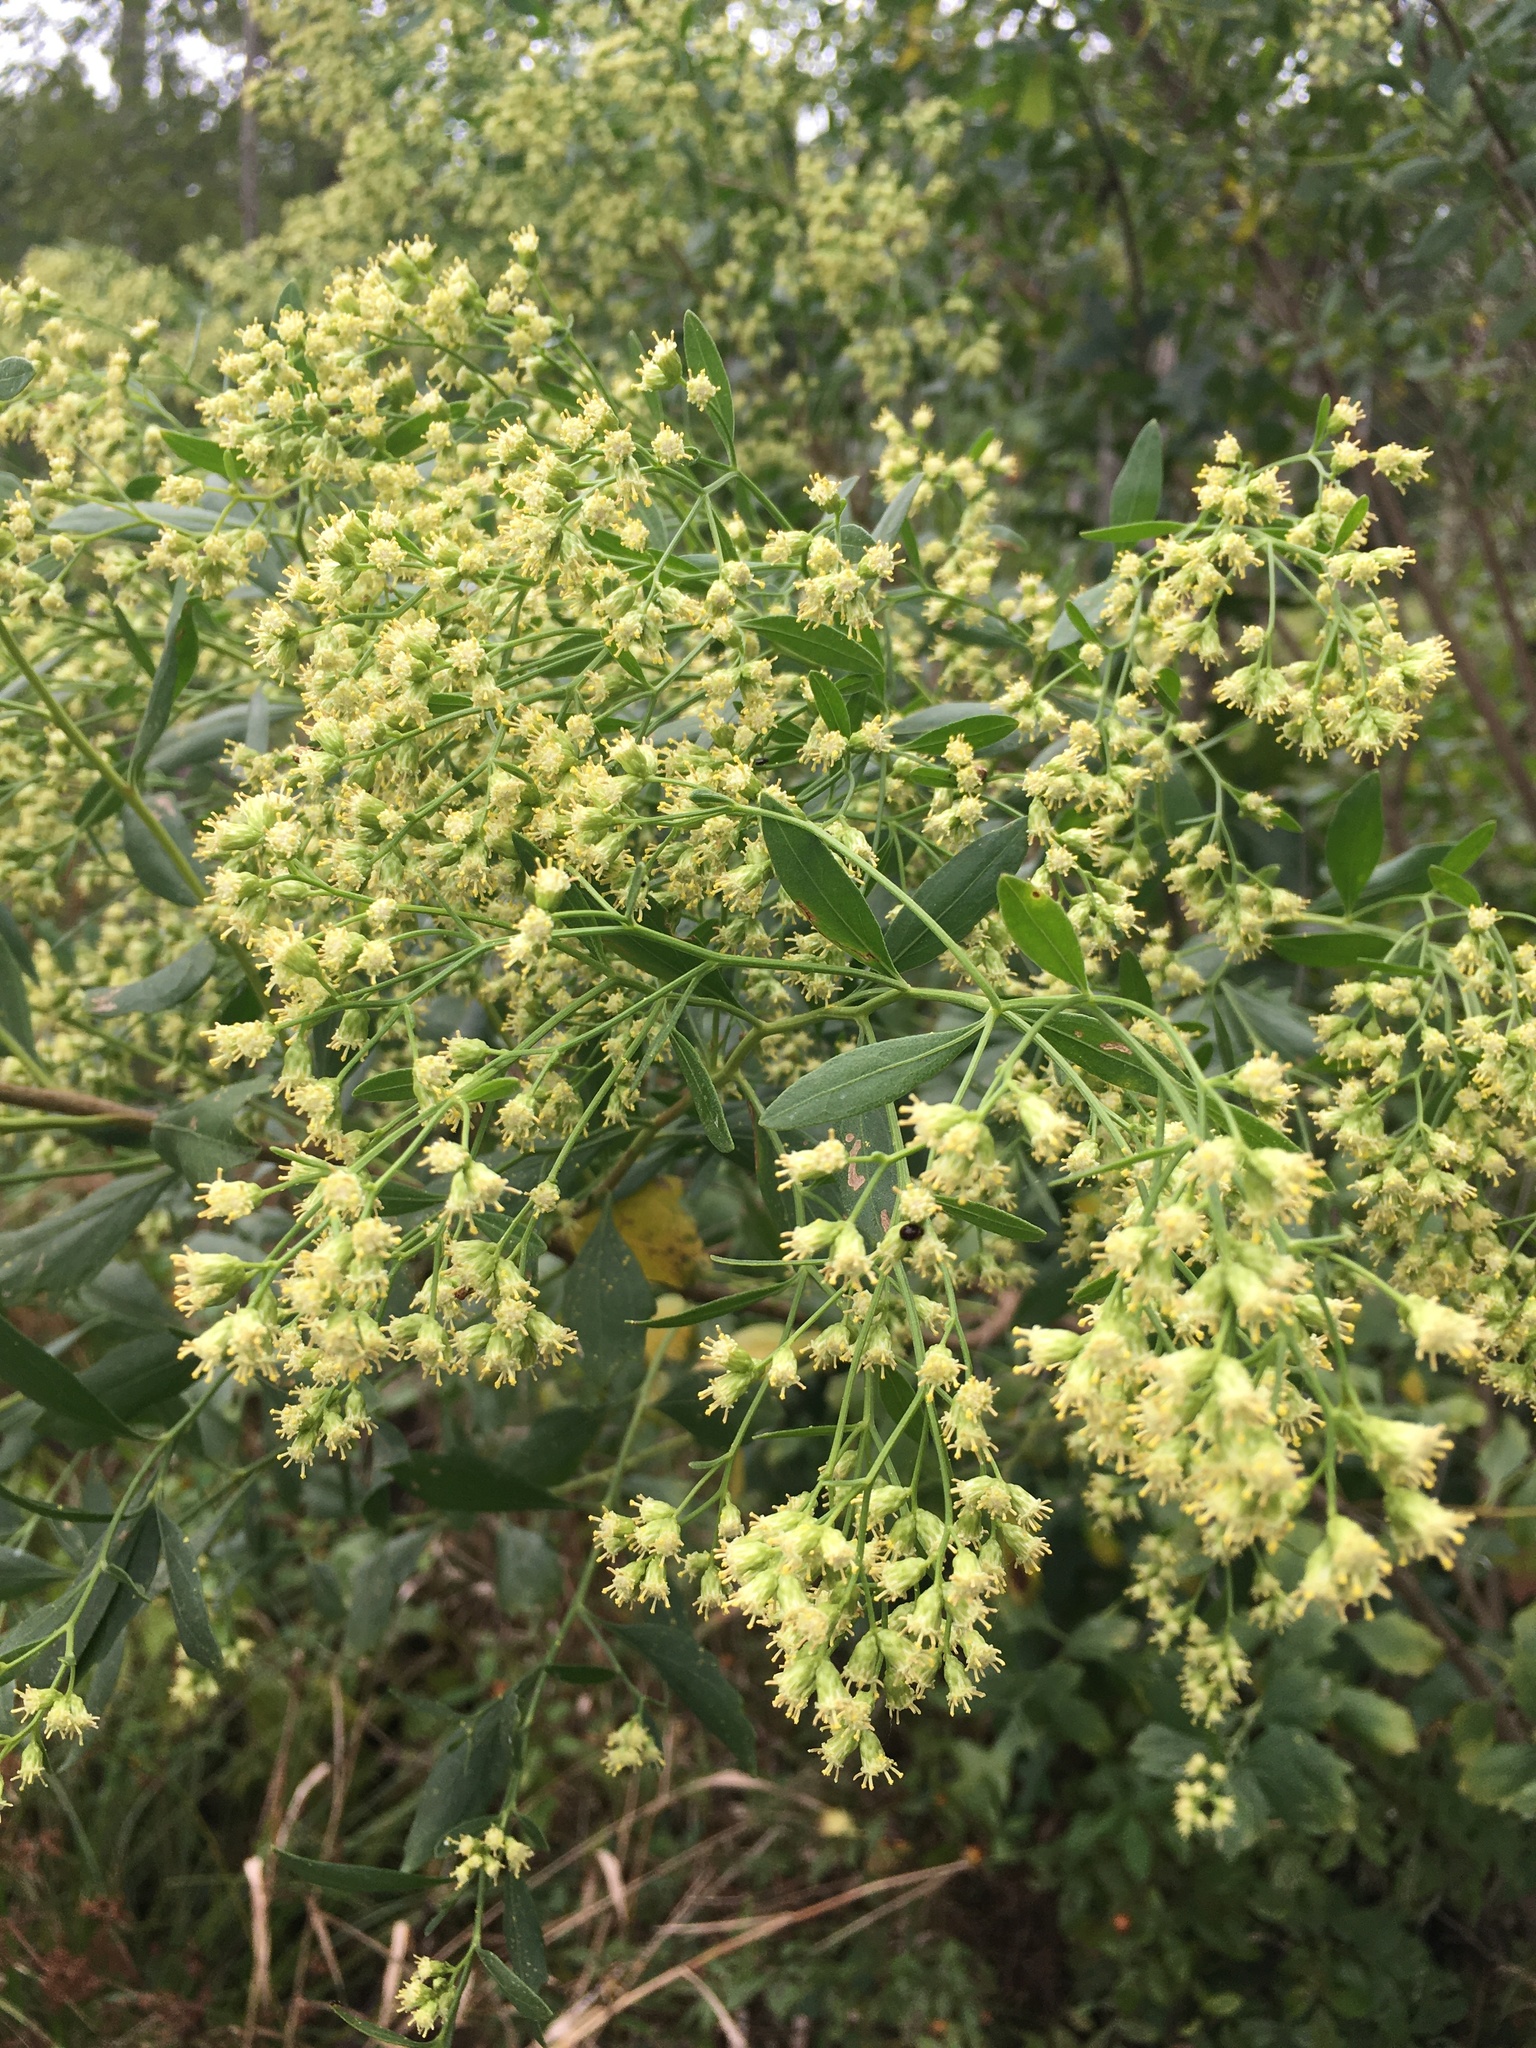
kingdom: Plantae
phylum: Tracheophyta
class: Magnoliopsida
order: Asterales
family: Asteraceae
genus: Baccharis
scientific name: Baccharis halimifolia
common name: Eastern baccharis
